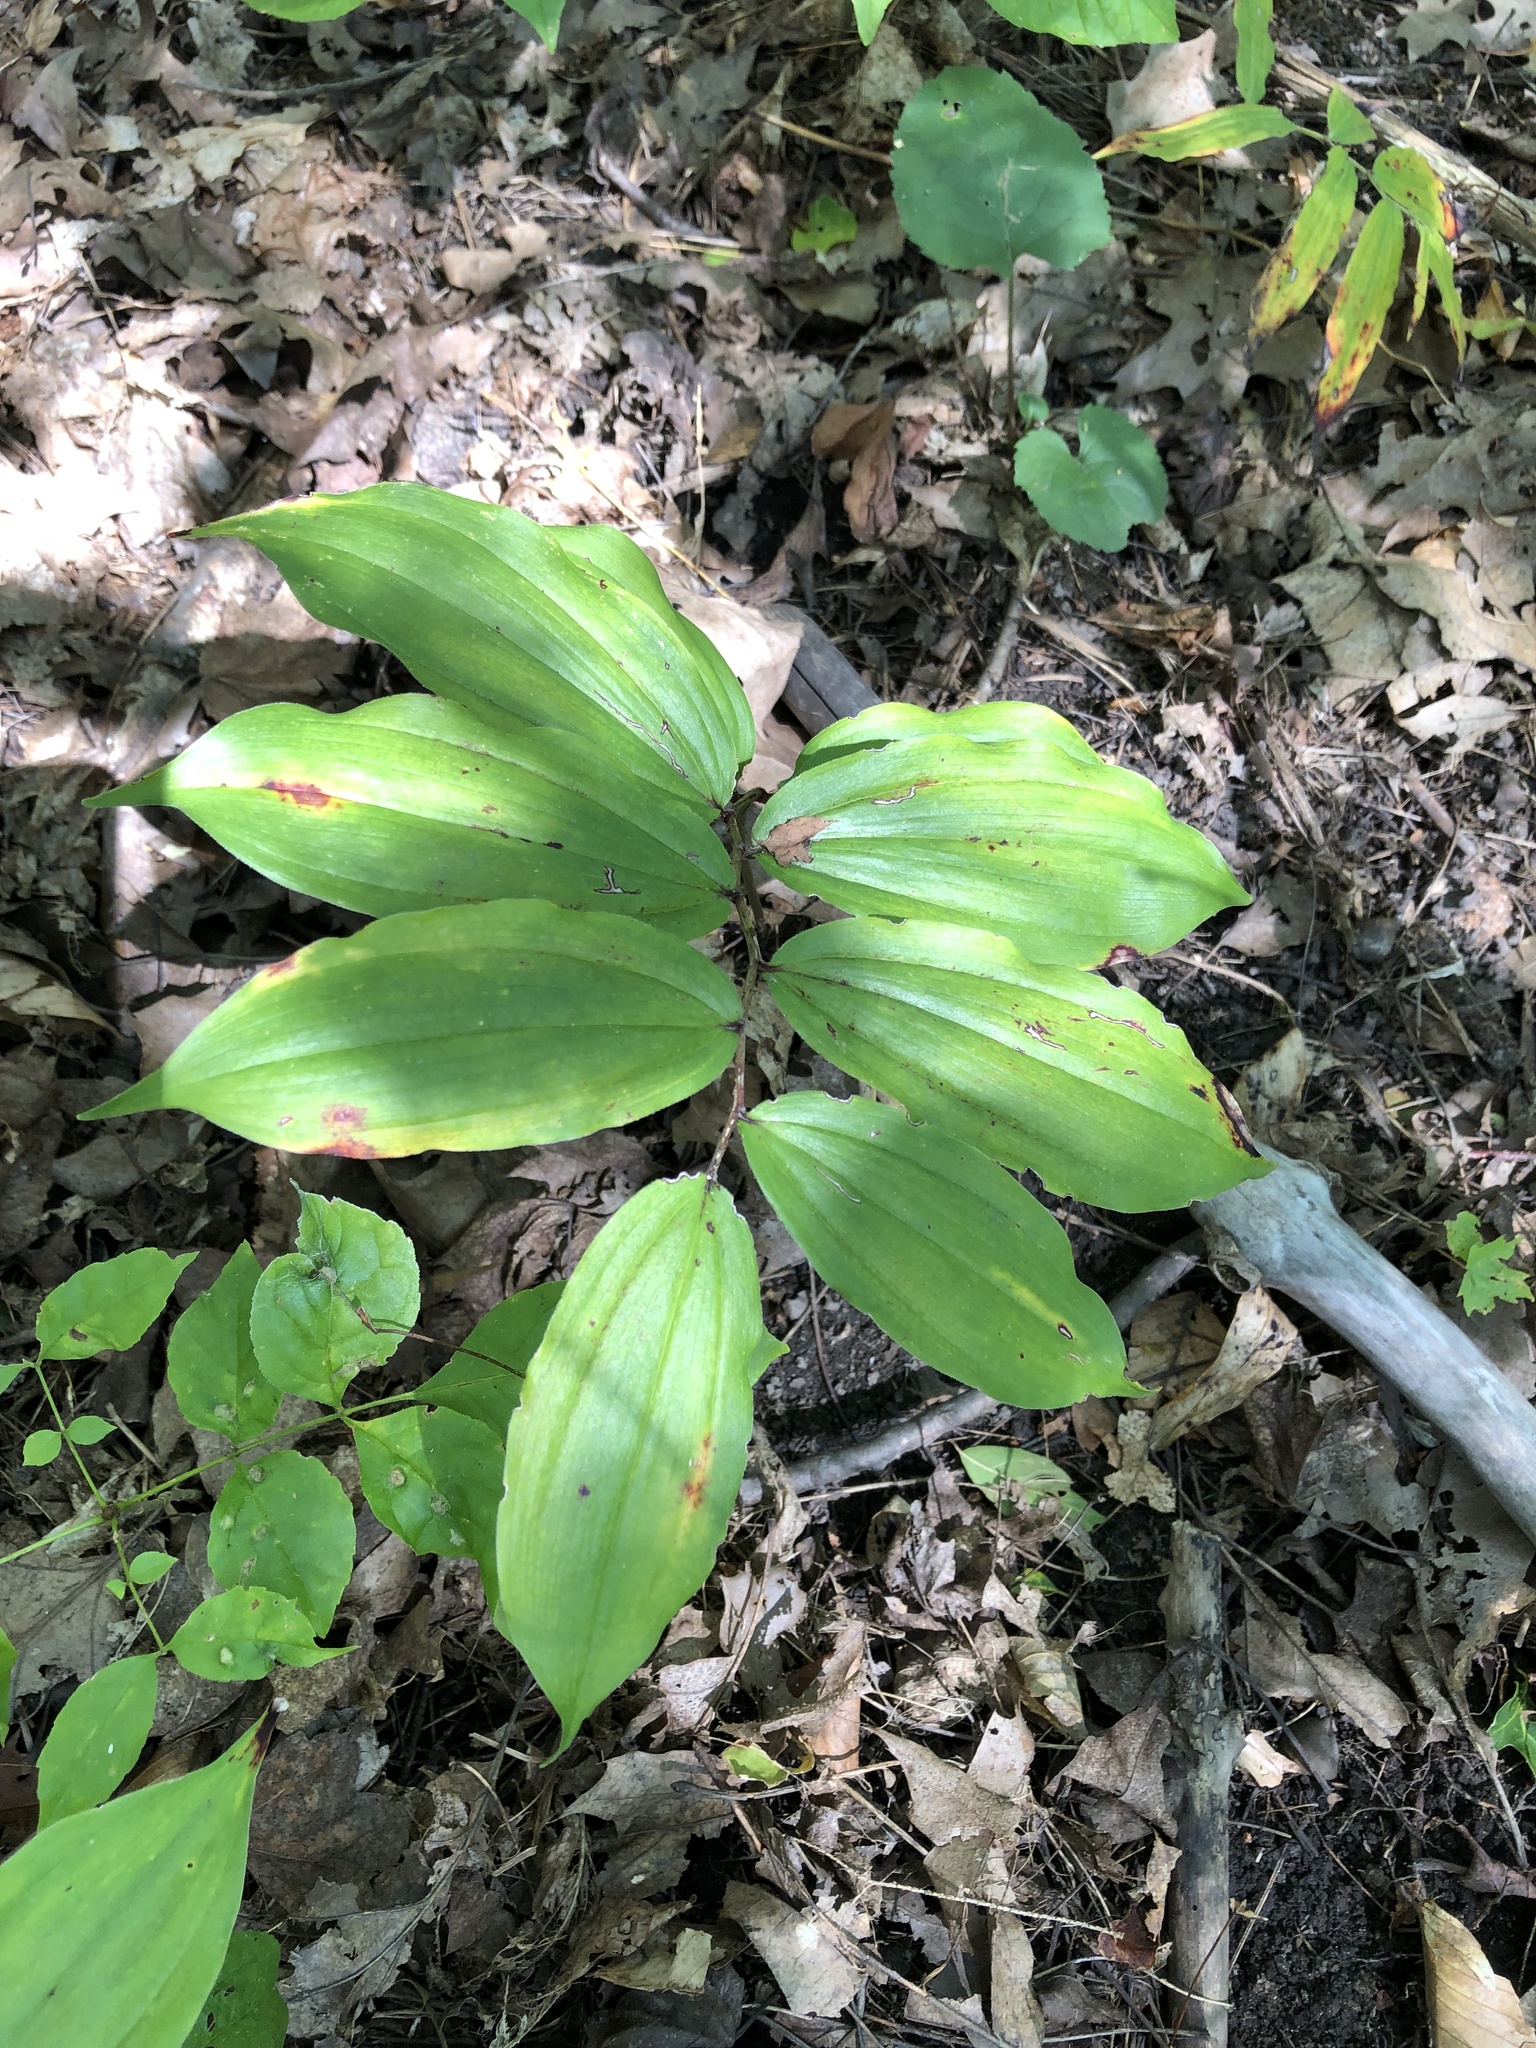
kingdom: Plantae
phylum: Tracheophyta
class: Liliopsida
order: Asparagales
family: Asparagaceae
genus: Maianthemum
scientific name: Maianthemum racemosum
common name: False spikenard
